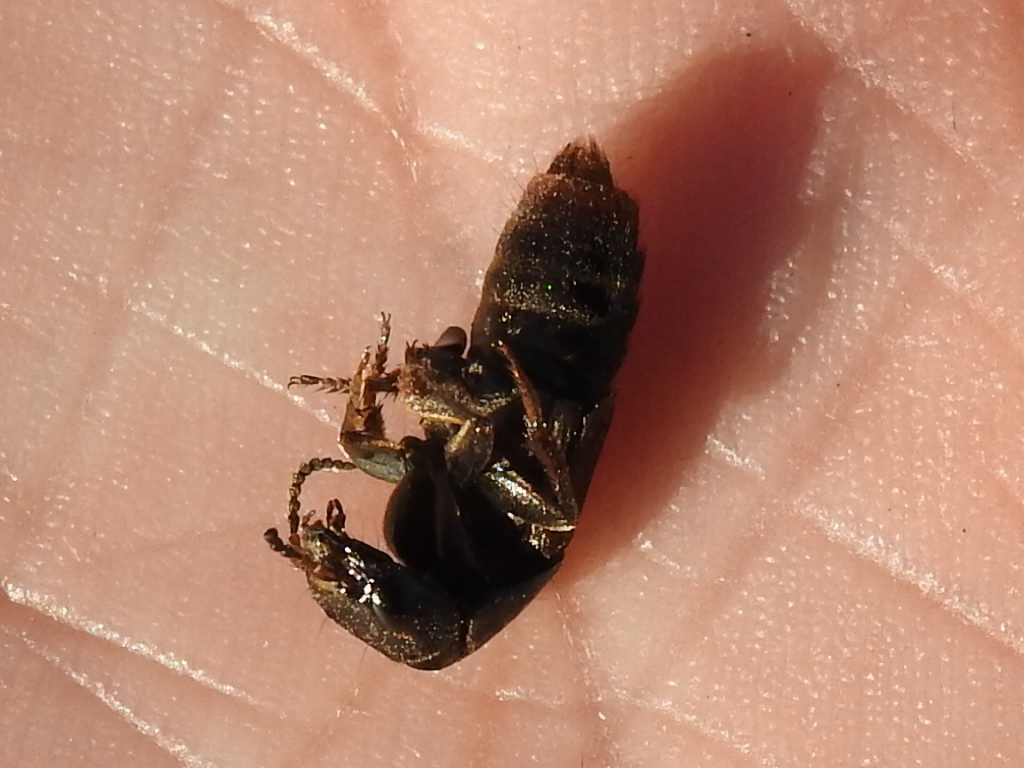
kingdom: Animalia
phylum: Arthropoda
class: Insecta
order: Coleoptera
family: Staphylinidae
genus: Platydracus
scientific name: Platydracus maculosus
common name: Brown rove beetle
